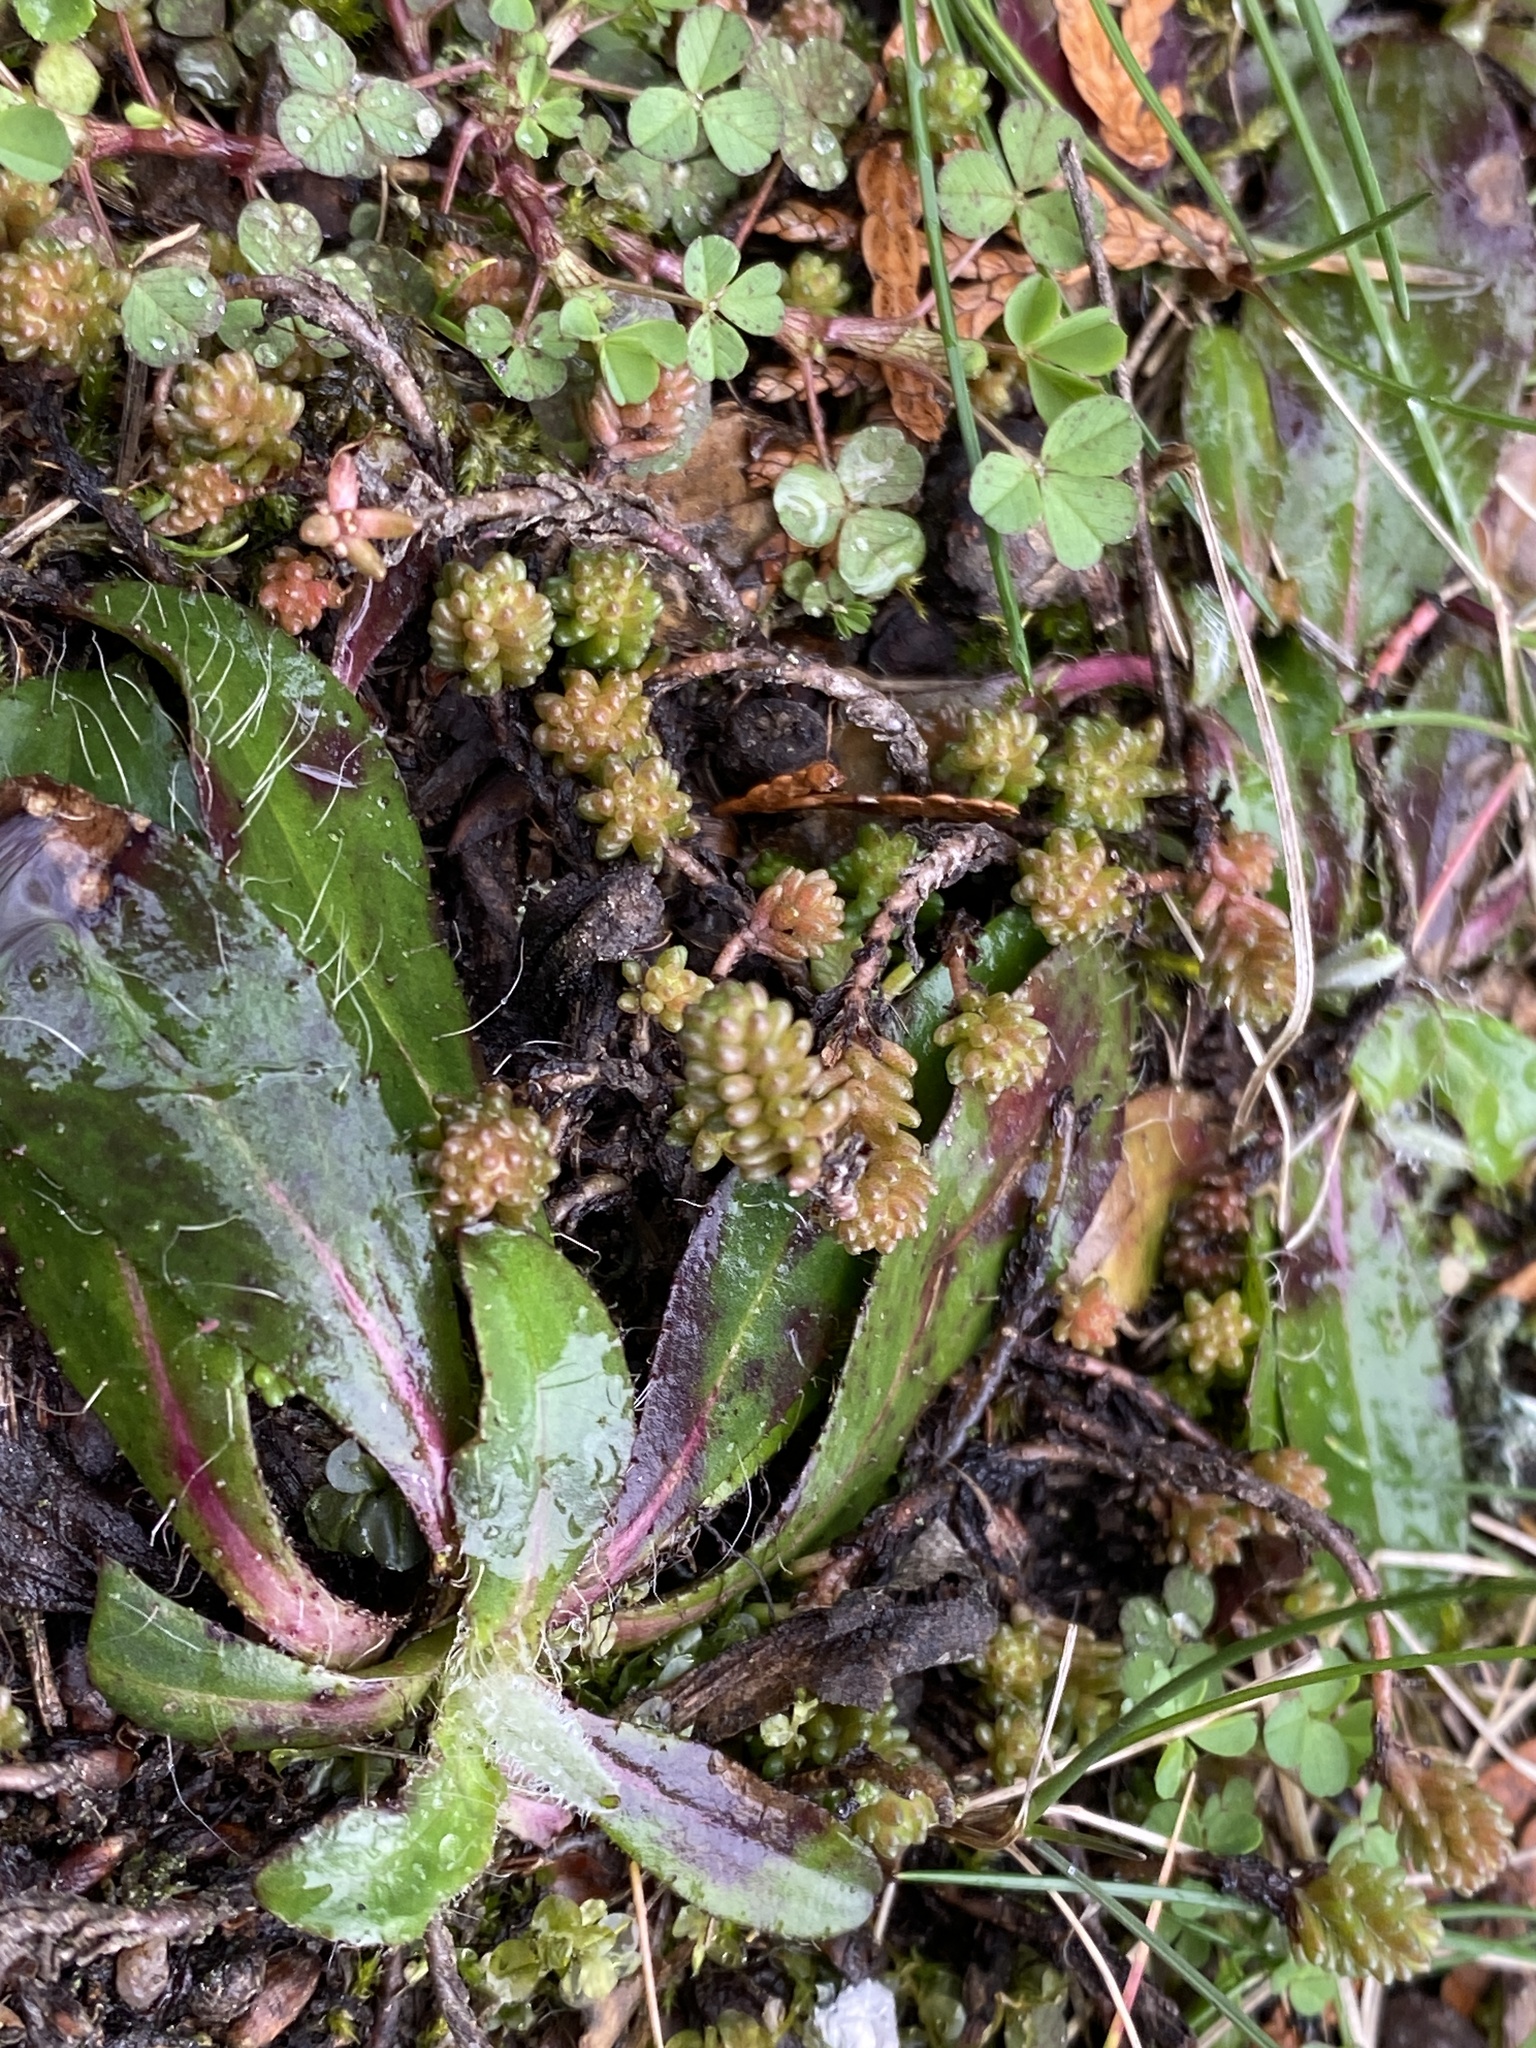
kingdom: Plantae
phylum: Tracheophyta
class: Magnoliopsida
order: Saxifragales
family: Crassulaceae
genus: Sedum
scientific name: Sedum sexangulare
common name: Tasteless stonecrop
